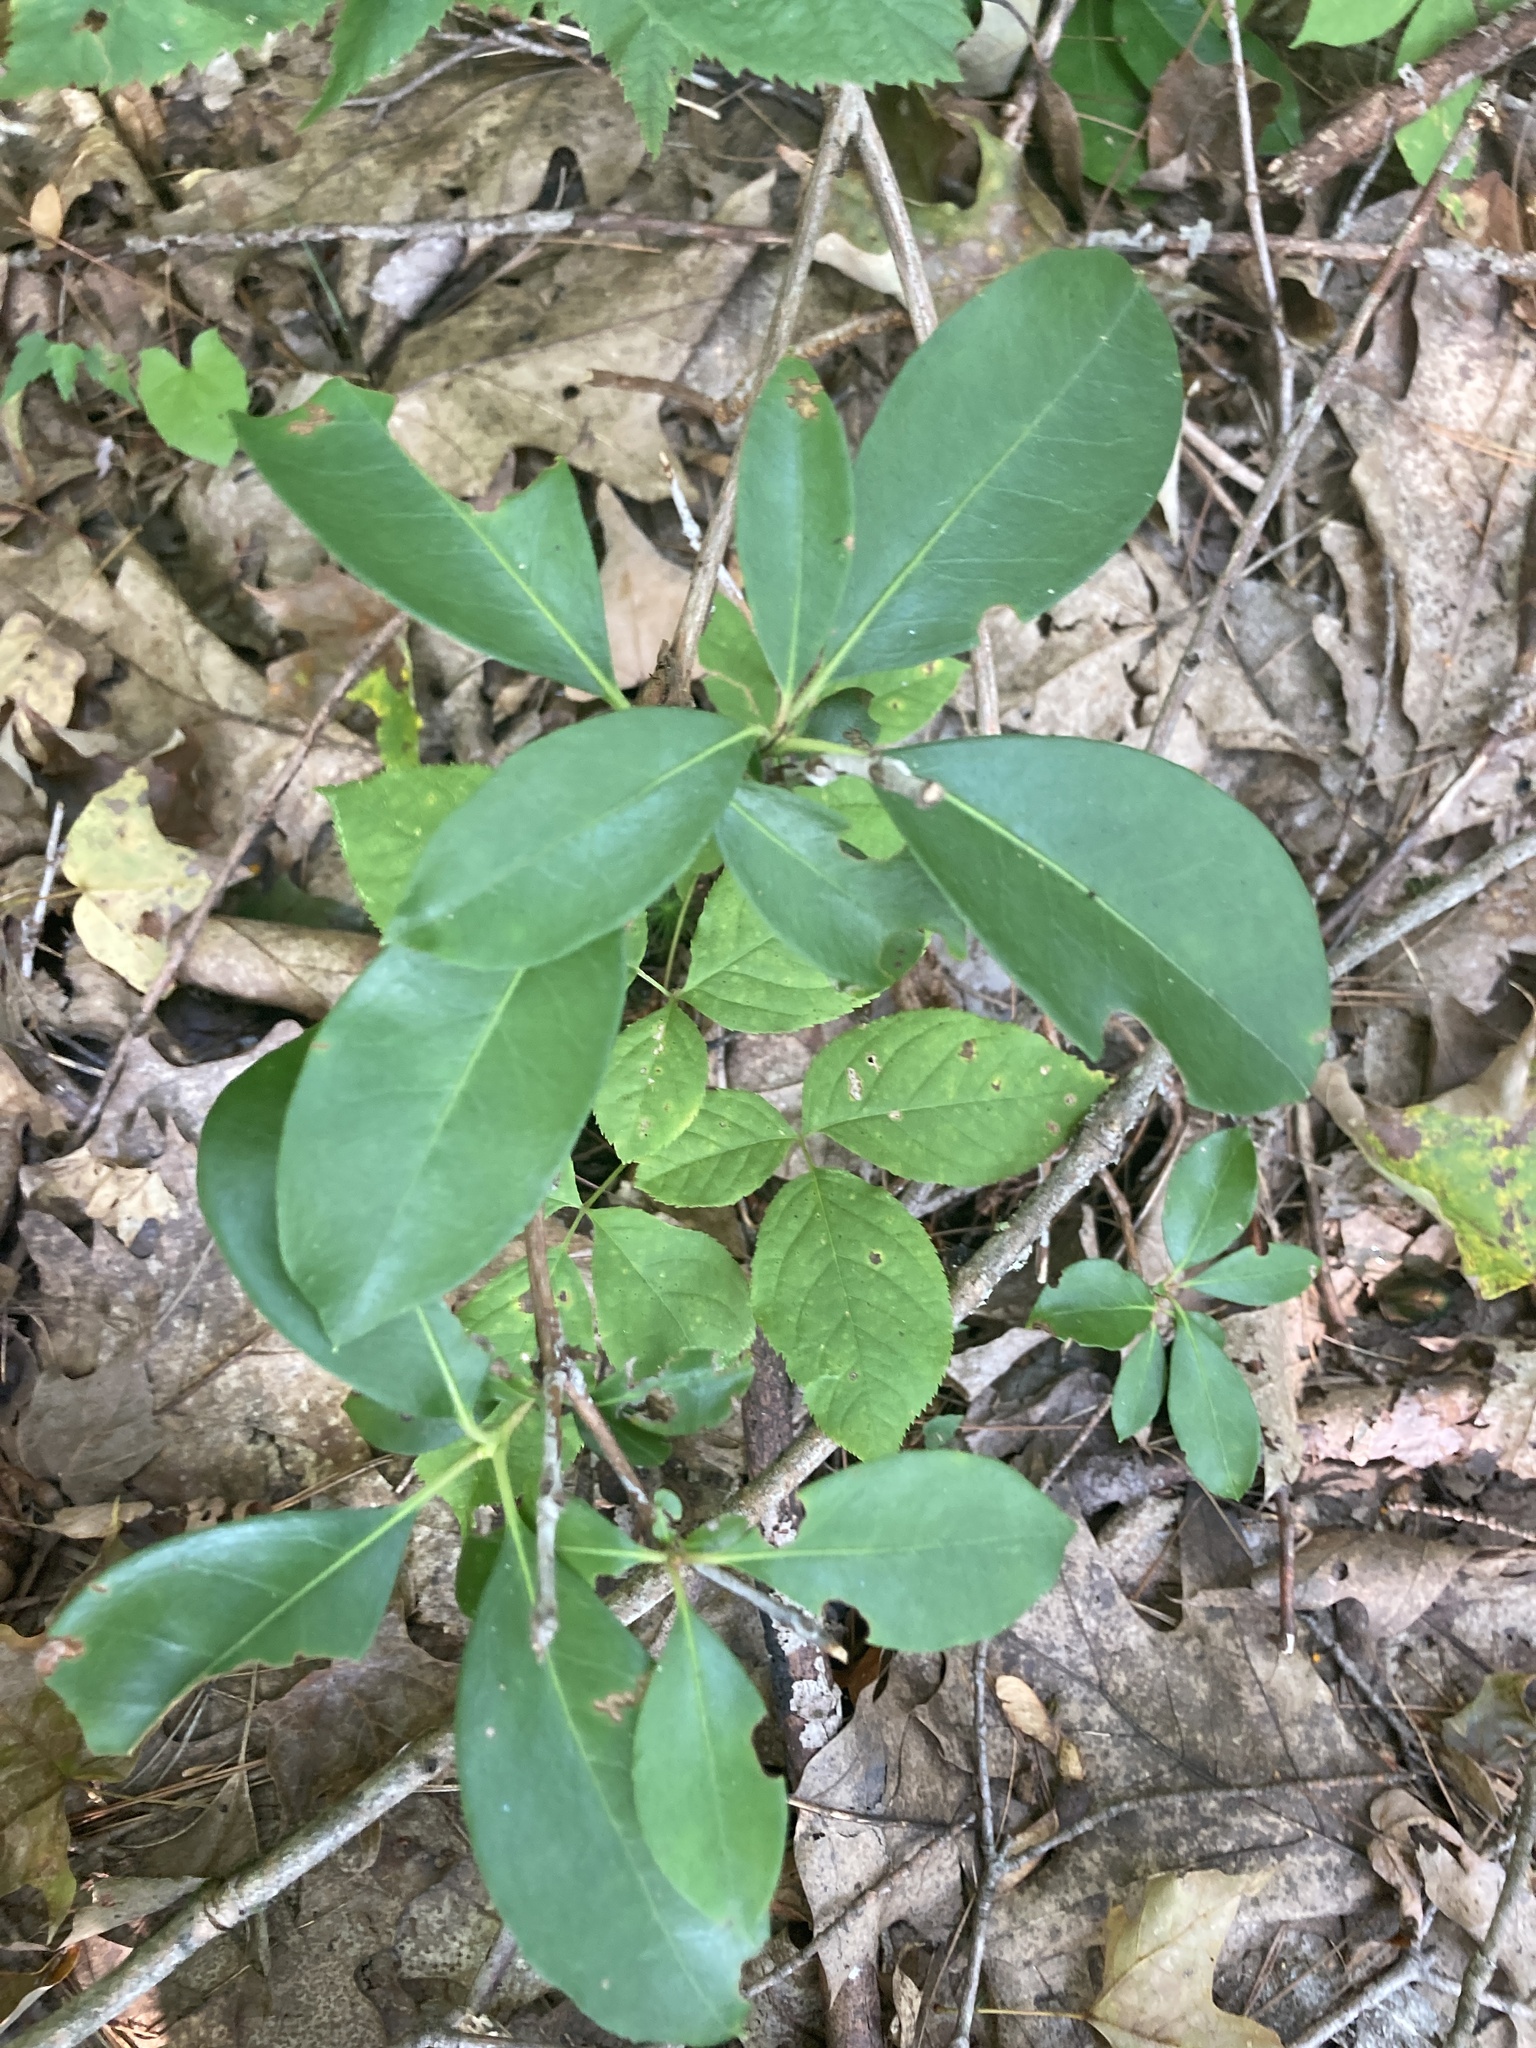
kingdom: Plantae
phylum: Tracheophyta
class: Magnoliopsida
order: Ericales
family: Ericaceae
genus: Kalmia
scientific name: Kalmia latifolia
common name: Mountain-laurel
